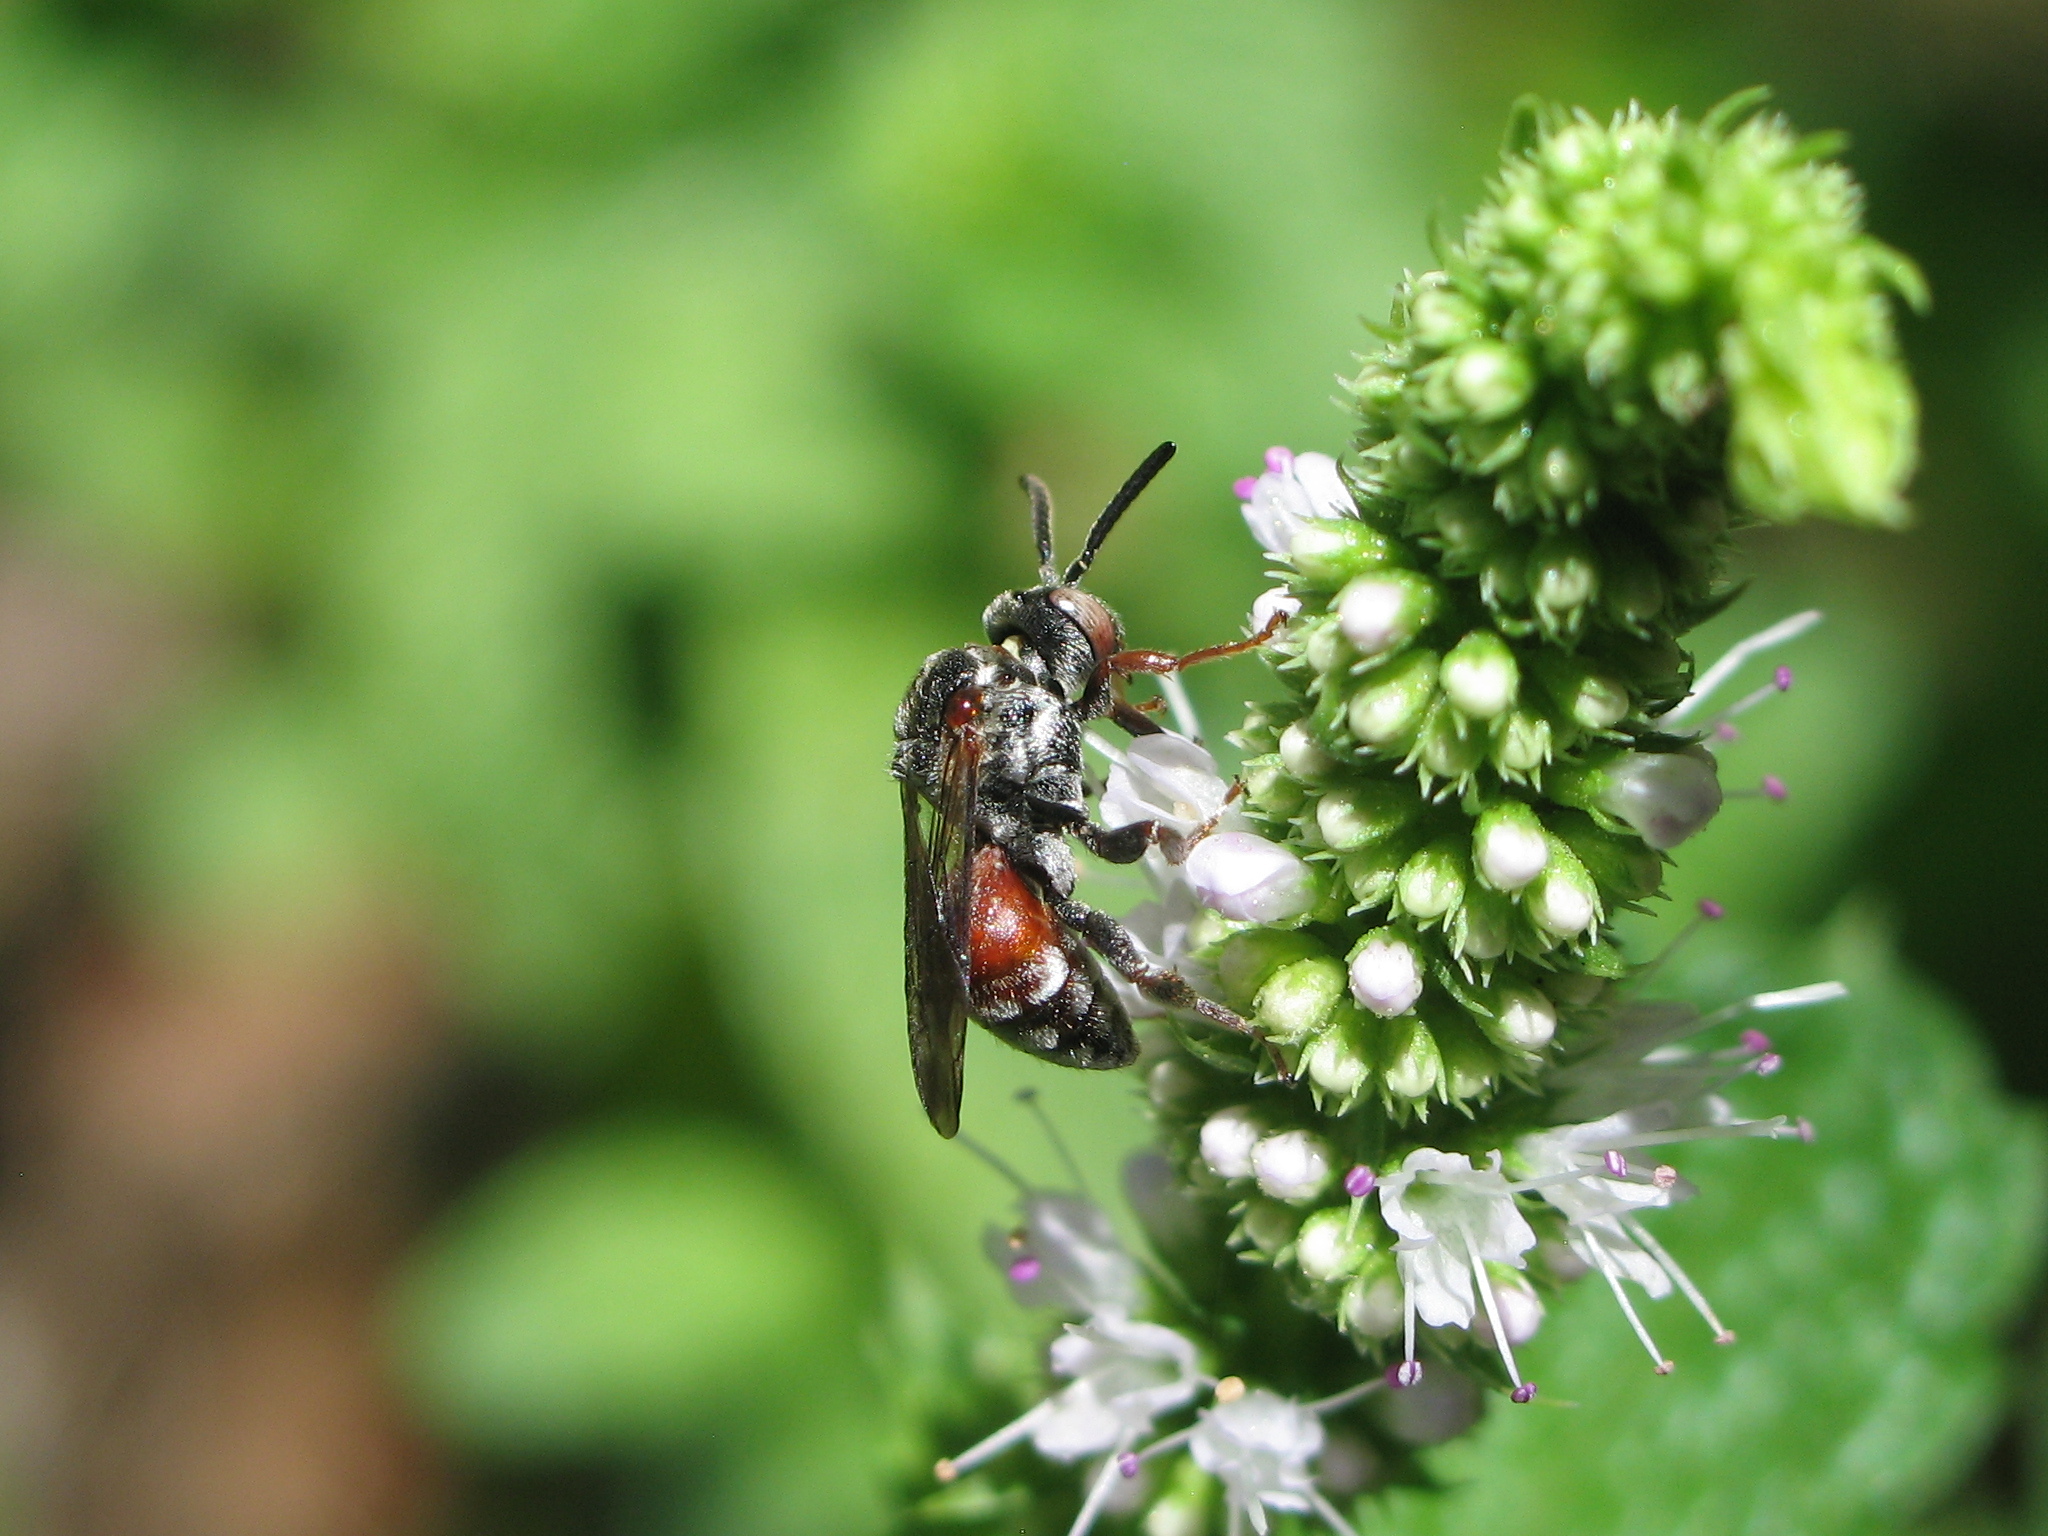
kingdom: Animalia
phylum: Arthropoda
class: Insecta
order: Hymenoptera
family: Apidae
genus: Pasites
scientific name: Pasites maculatus
